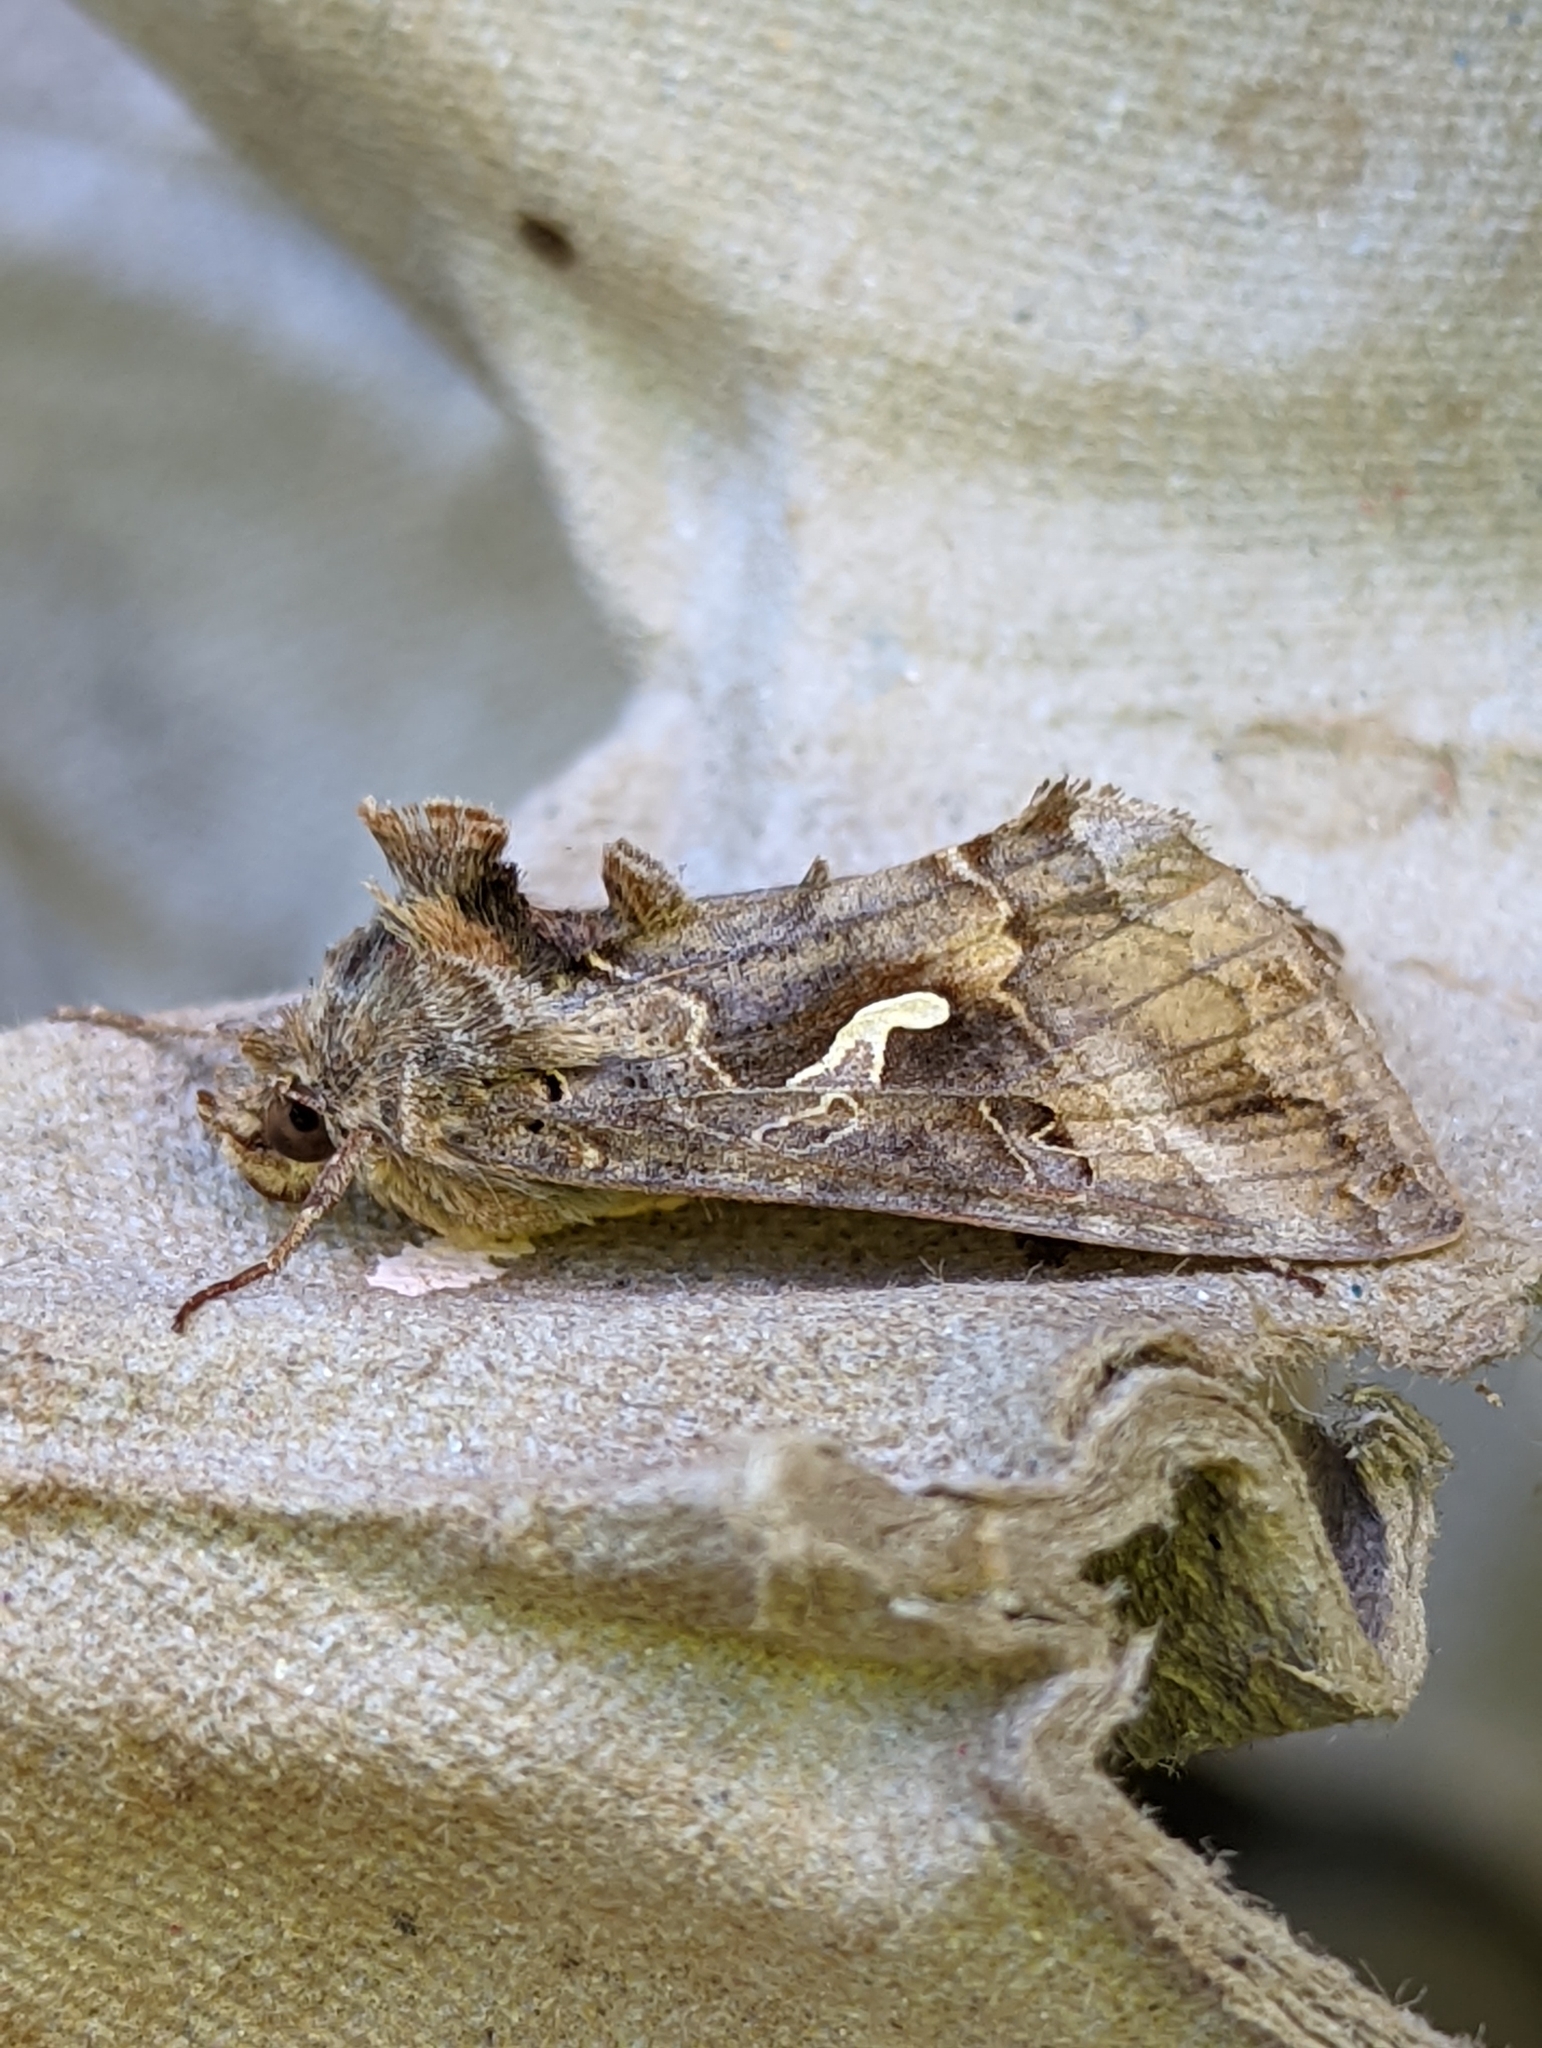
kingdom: Animalia
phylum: Arthropoda
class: Insecta
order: Lepidoptera
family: Noctuidae
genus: Autographa
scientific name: Autographa gamma
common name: Silver y
